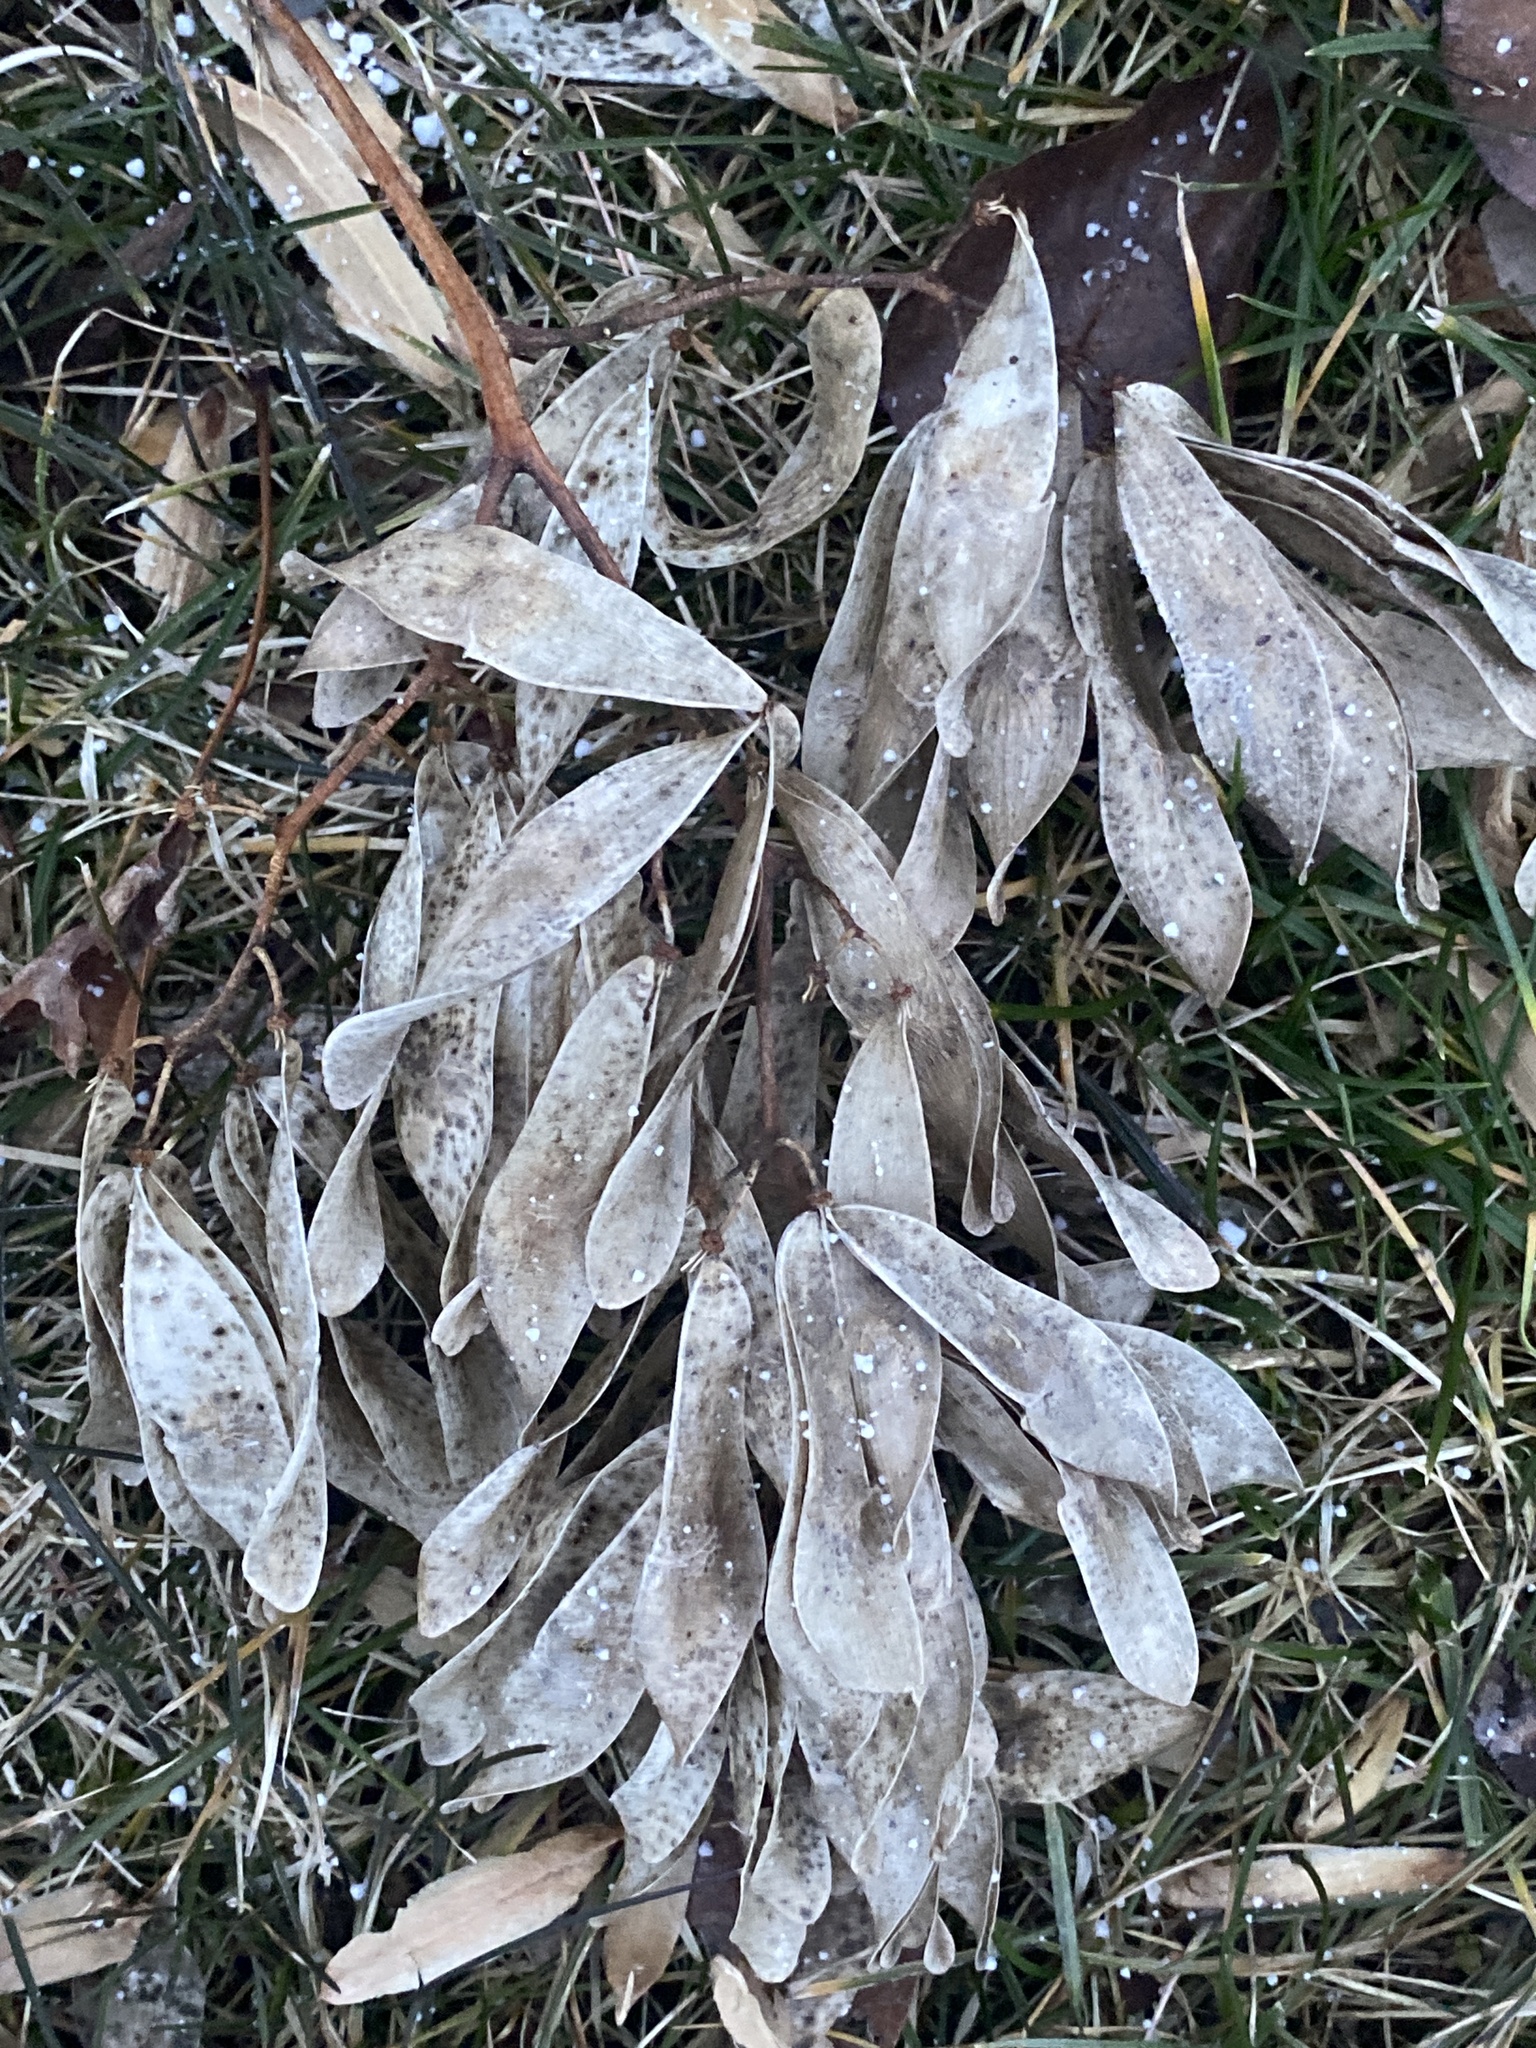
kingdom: Plantae
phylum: Tracheophyta
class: Magnoliopsida
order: Sapindales
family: Simaroubaceae
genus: Ailanthus
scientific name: Ailanthus altissima
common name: Tree-of-heaven
